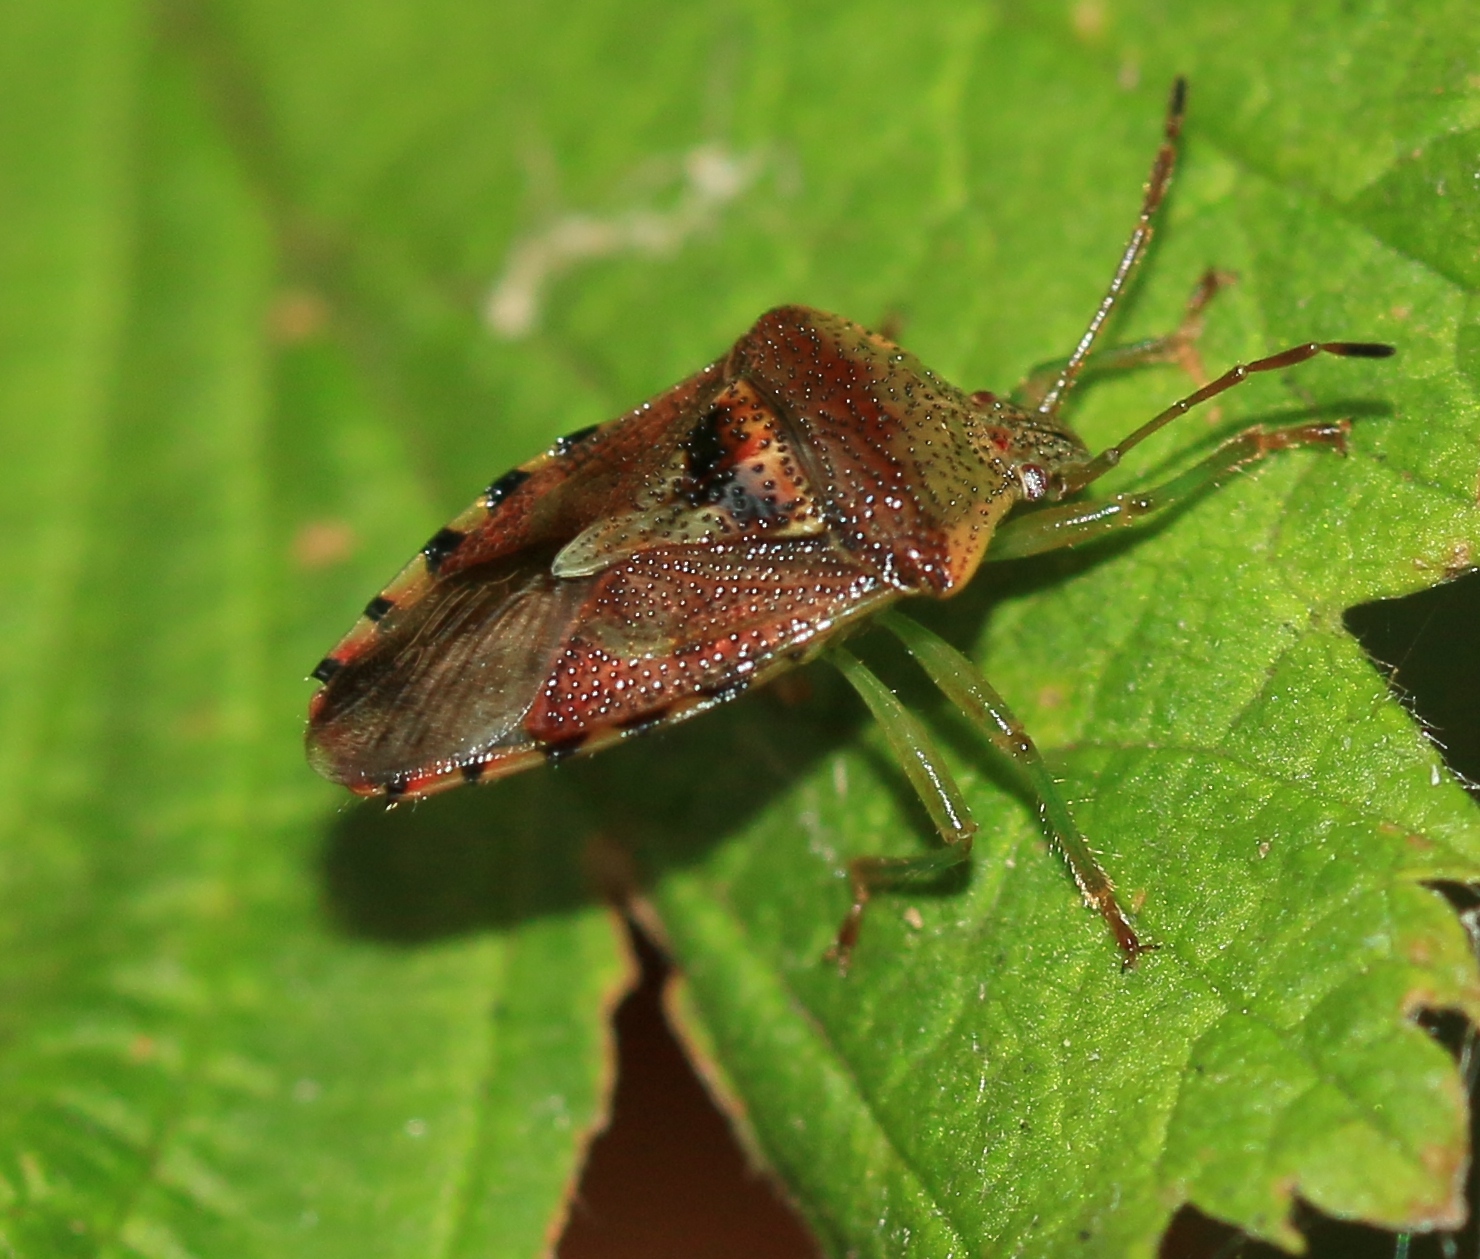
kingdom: Animalia
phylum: Arthropoda
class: Insecta
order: Hemiptera
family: Acanthosomatidae
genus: Elasmucha
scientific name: Elasmucha grisea
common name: Parent bug
